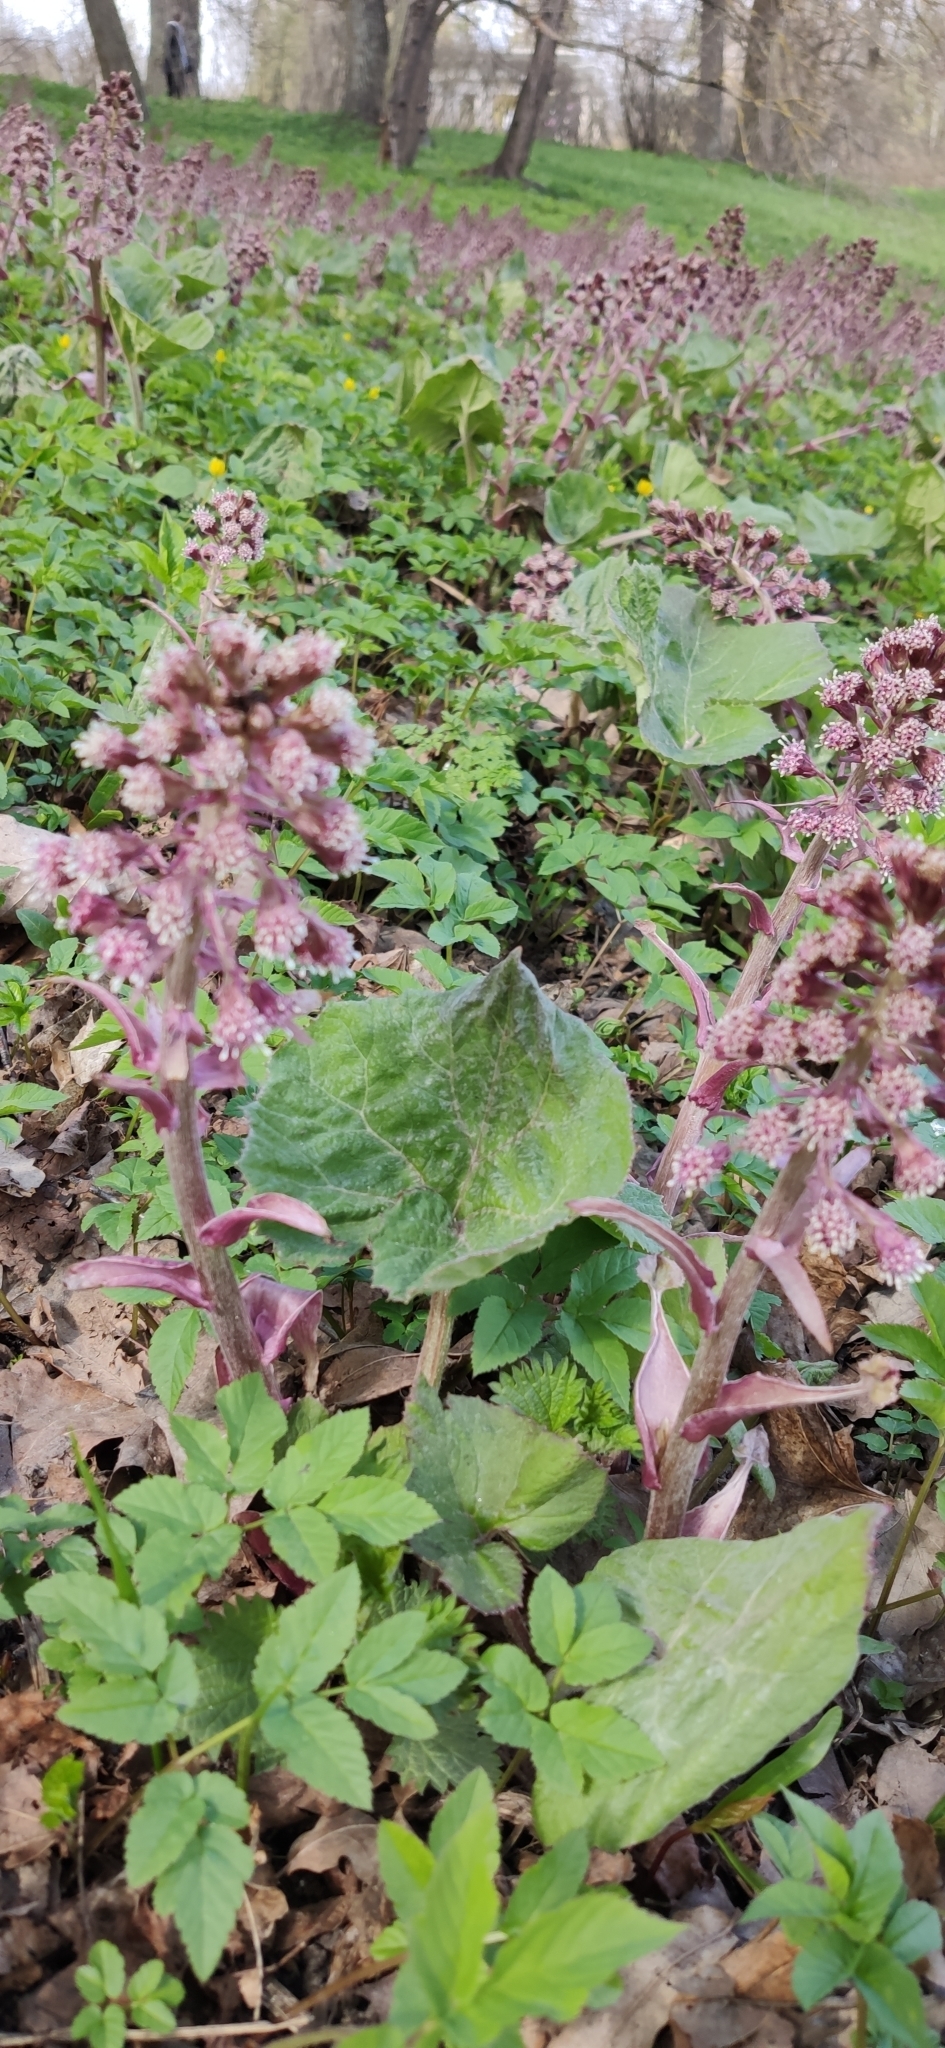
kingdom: Plantae
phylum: Tracheophyta
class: Magnoliopsida
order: Asterales
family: Asteraceae
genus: Petasites
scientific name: Petasites hybridus
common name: Butterbur
